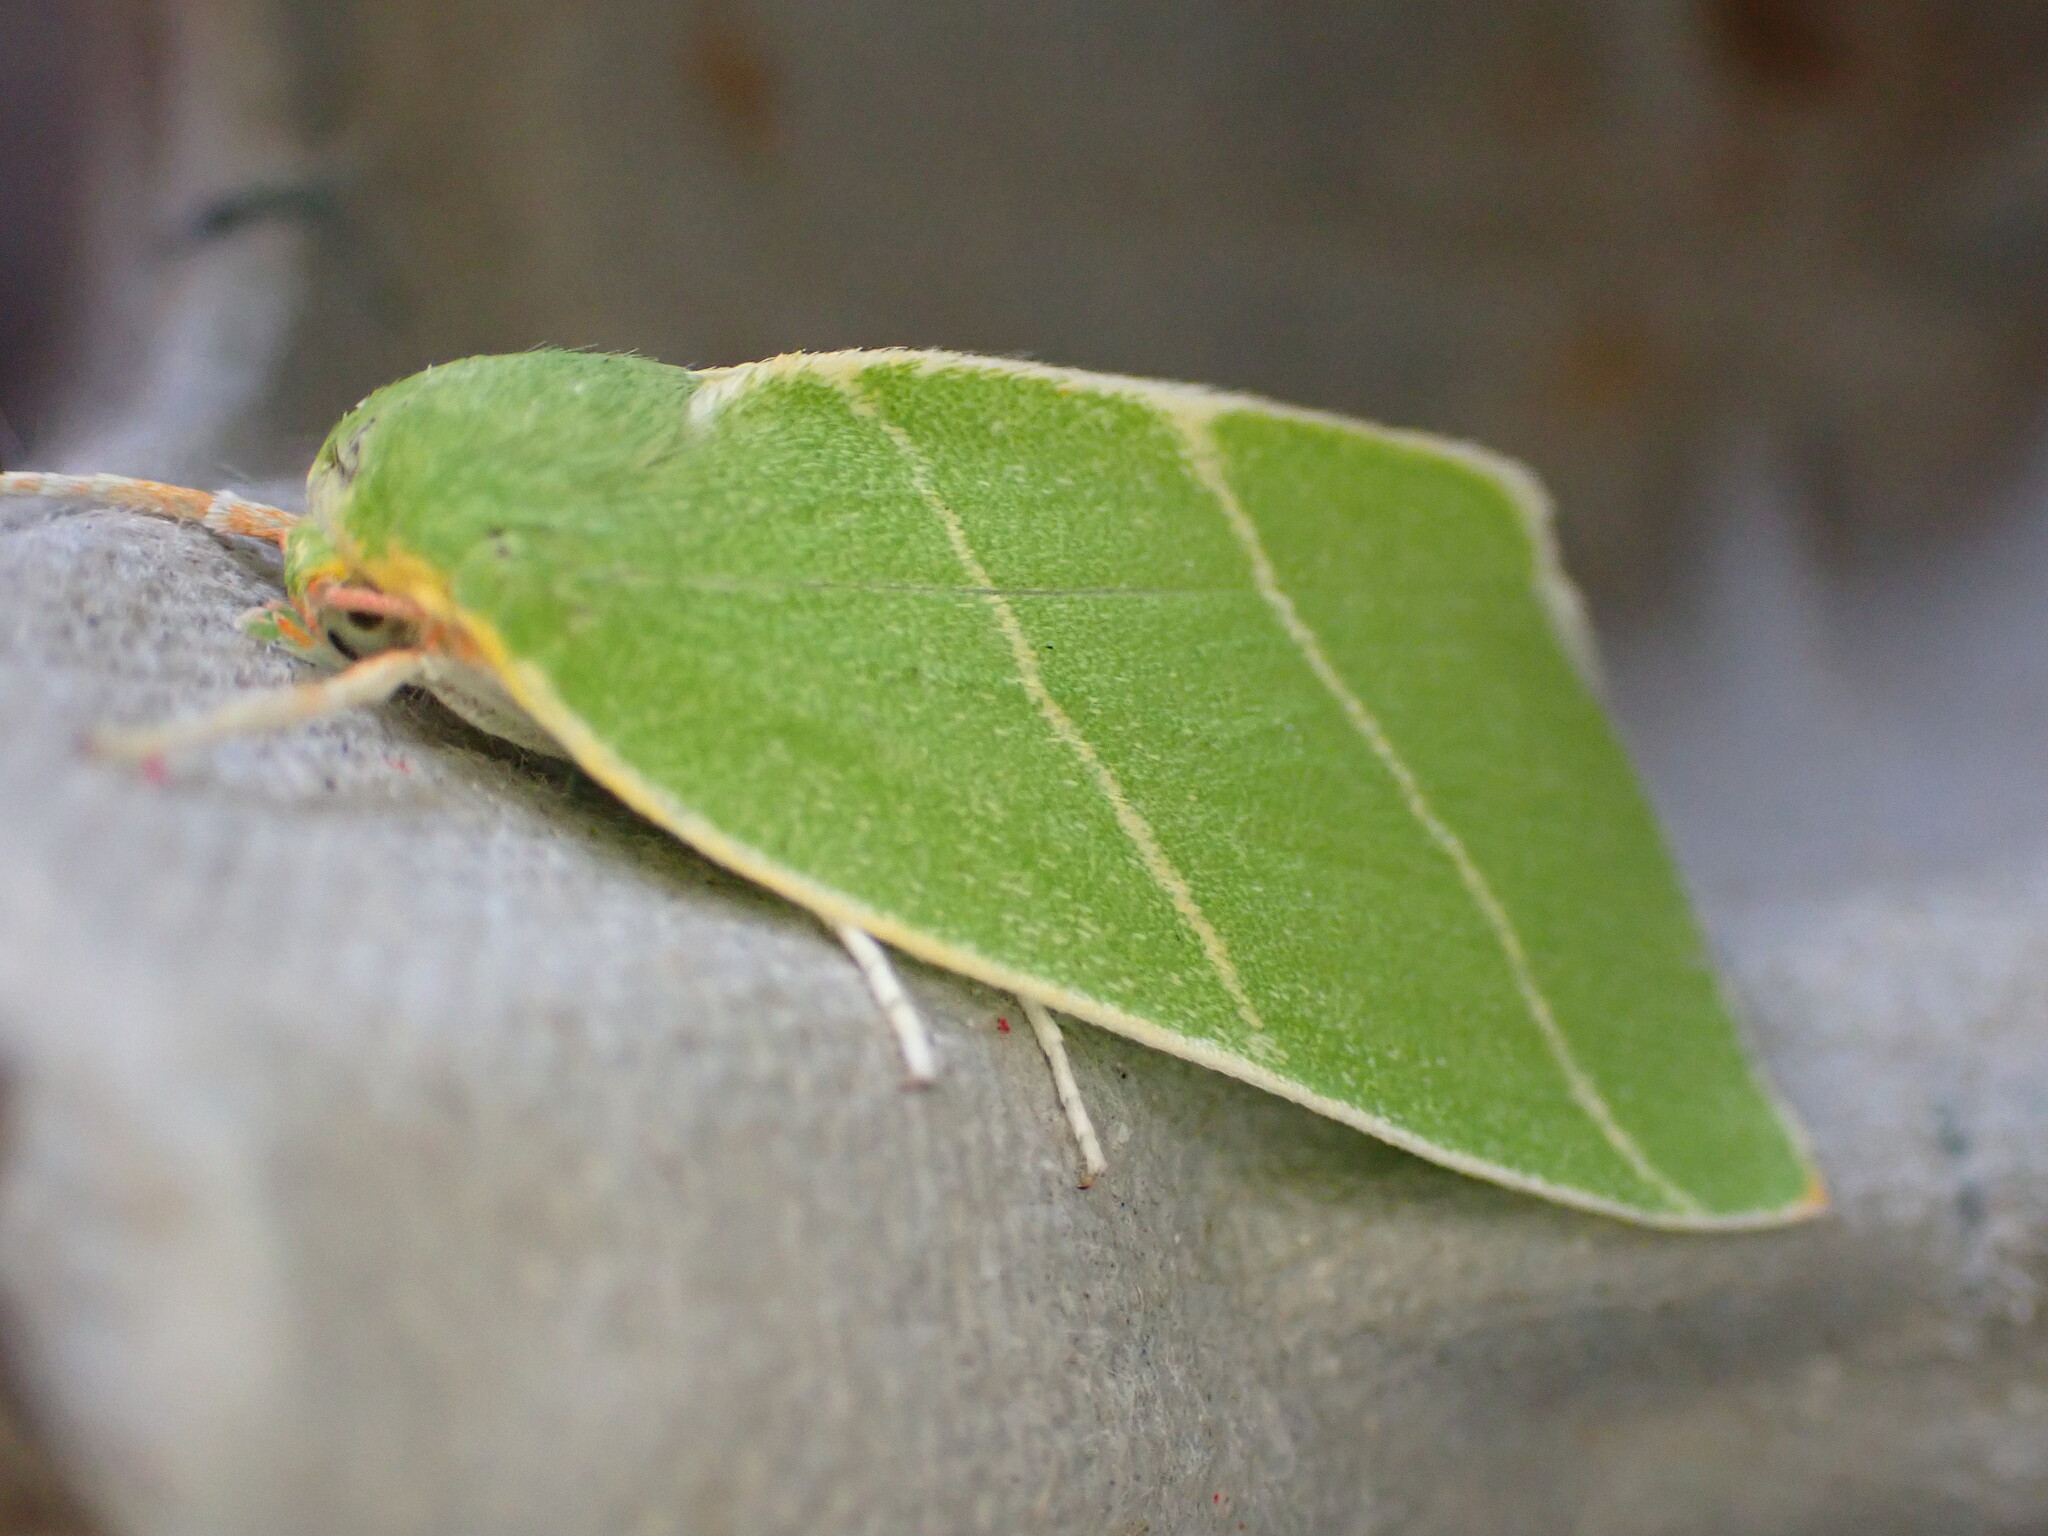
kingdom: Animalia
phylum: Arthropoda
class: Insecta
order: Lepidoptera
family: Nolidae
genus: Bena
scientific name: Bena bicolorana
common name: Scarce silver-lines
